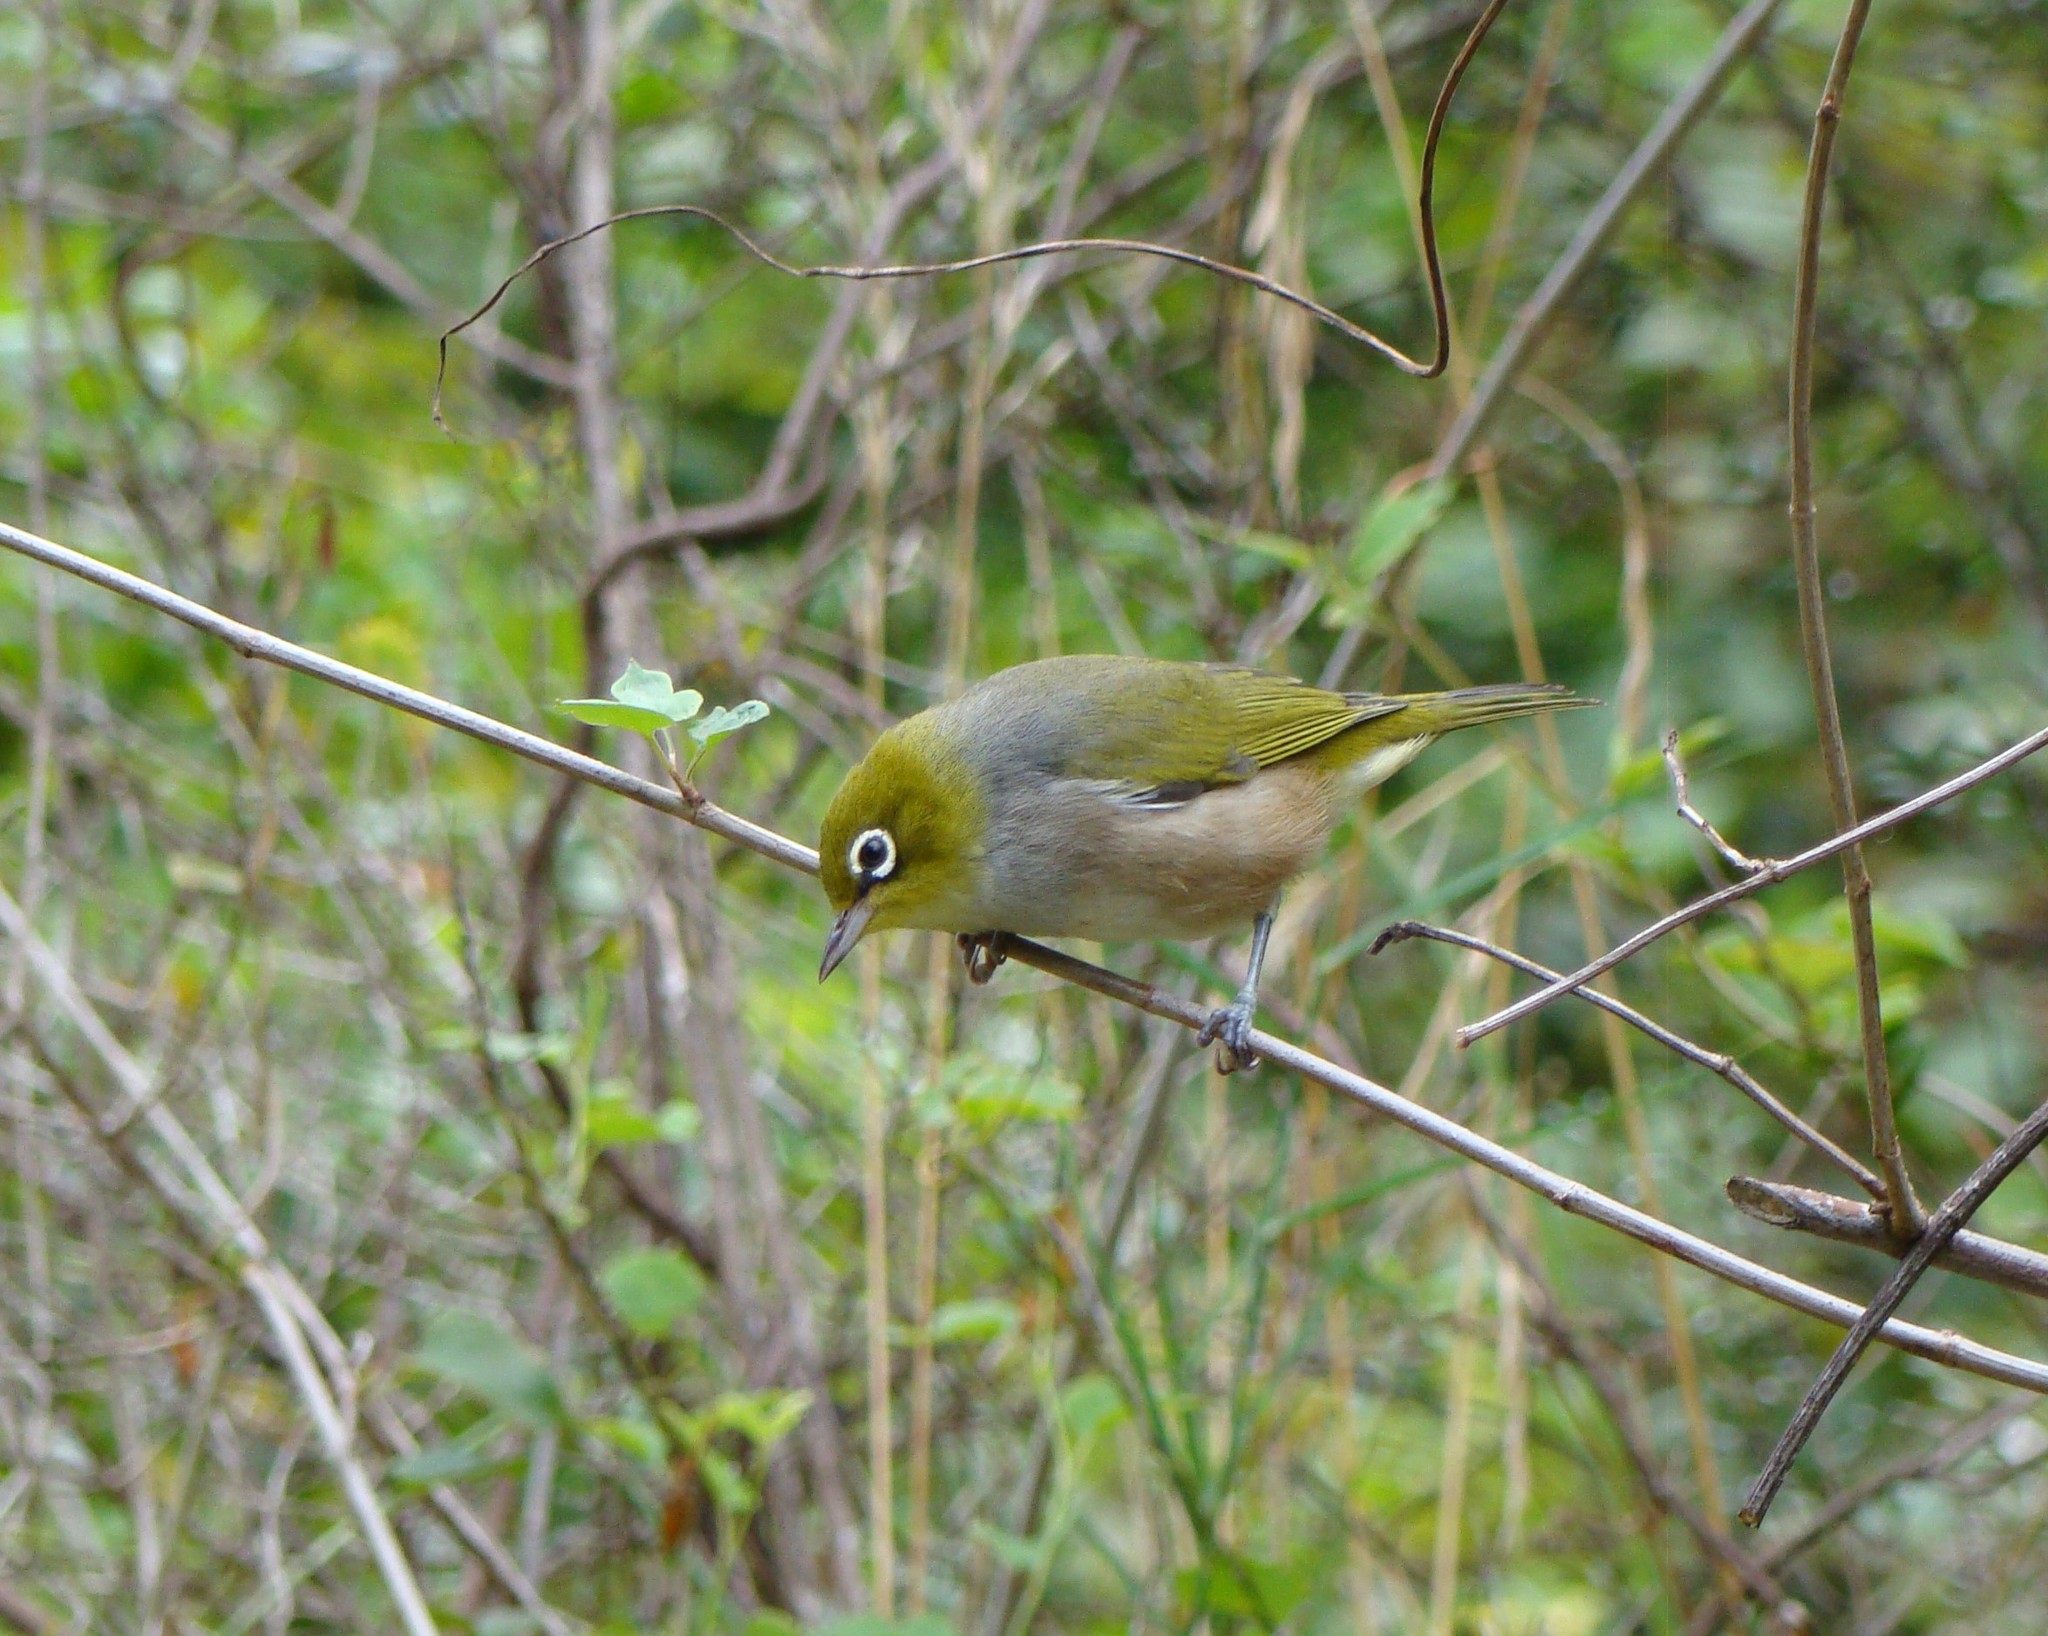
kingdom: Animalia
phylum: Chordata
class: Aves
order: Passeriformes
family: Zosteropidae
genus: Zosterops
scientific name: Zosterops lateralis
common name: Silvereye
